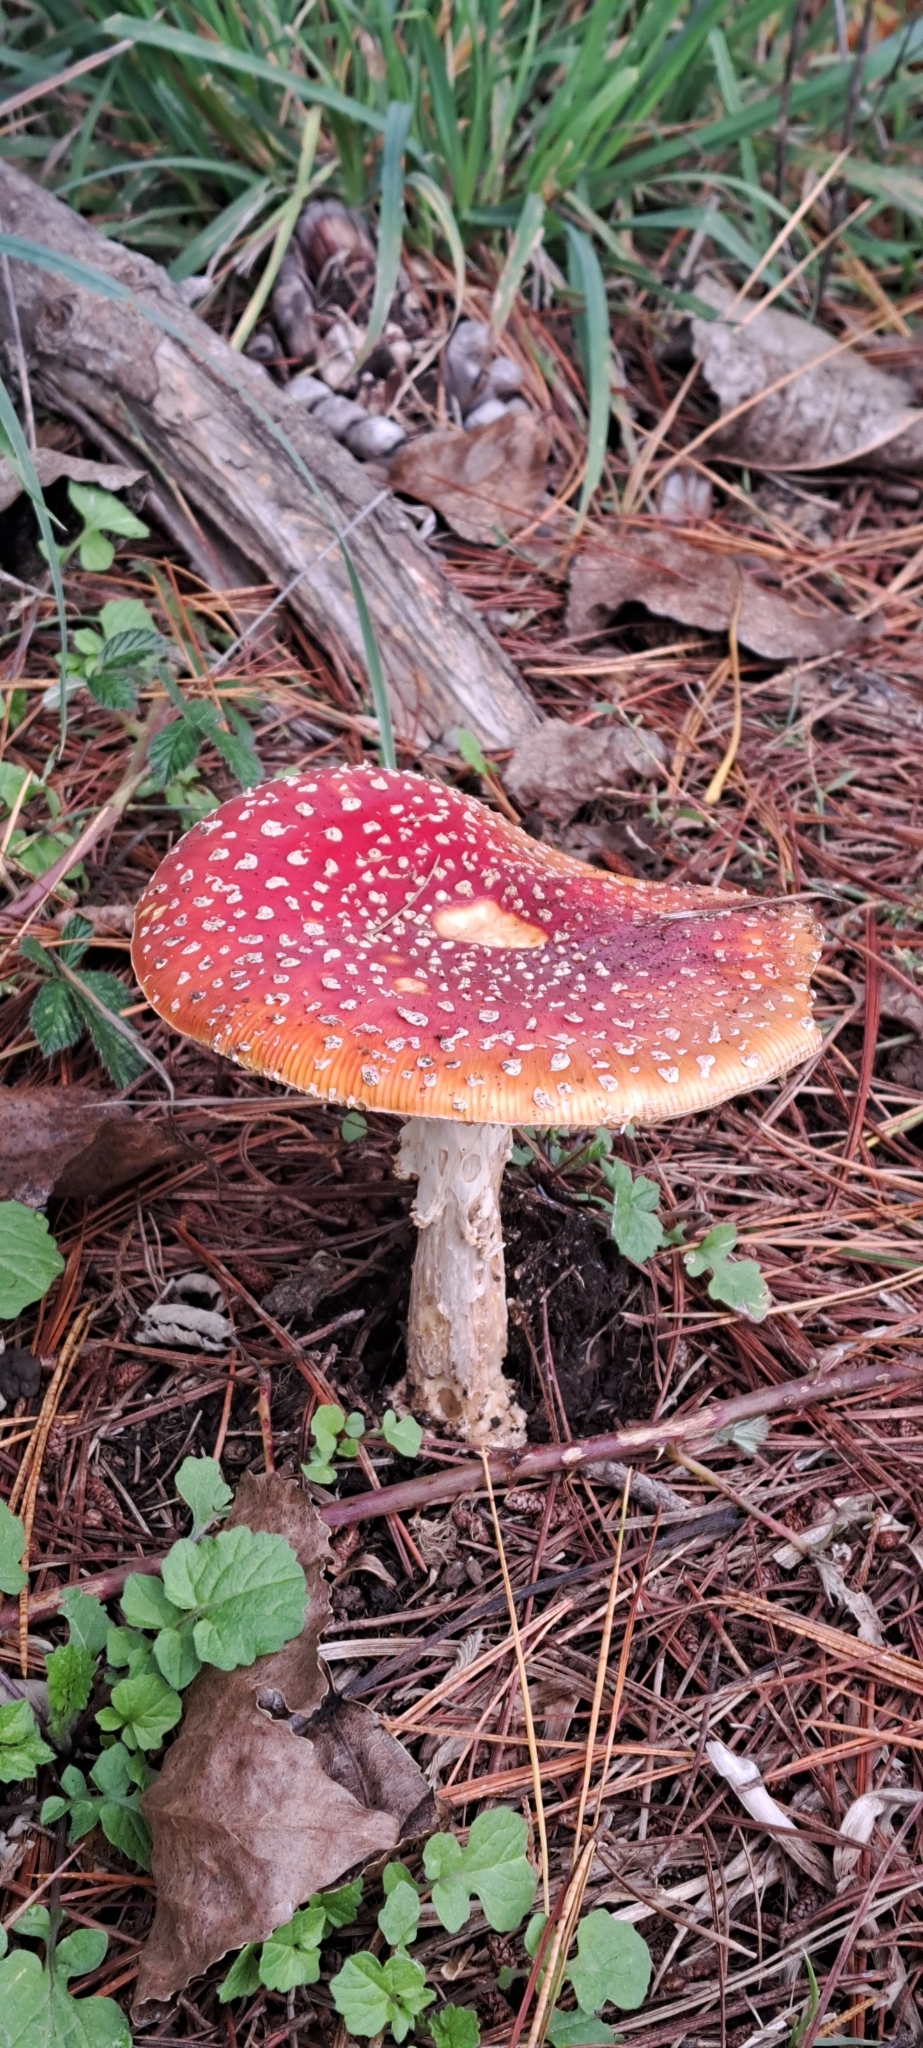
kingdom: Fungi
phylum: Basidiomycota
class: Agaricomycetes
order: Agaricales
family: Amanitaceae
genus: Amanita
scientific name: Amanita muscaria
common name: Fly agaric
